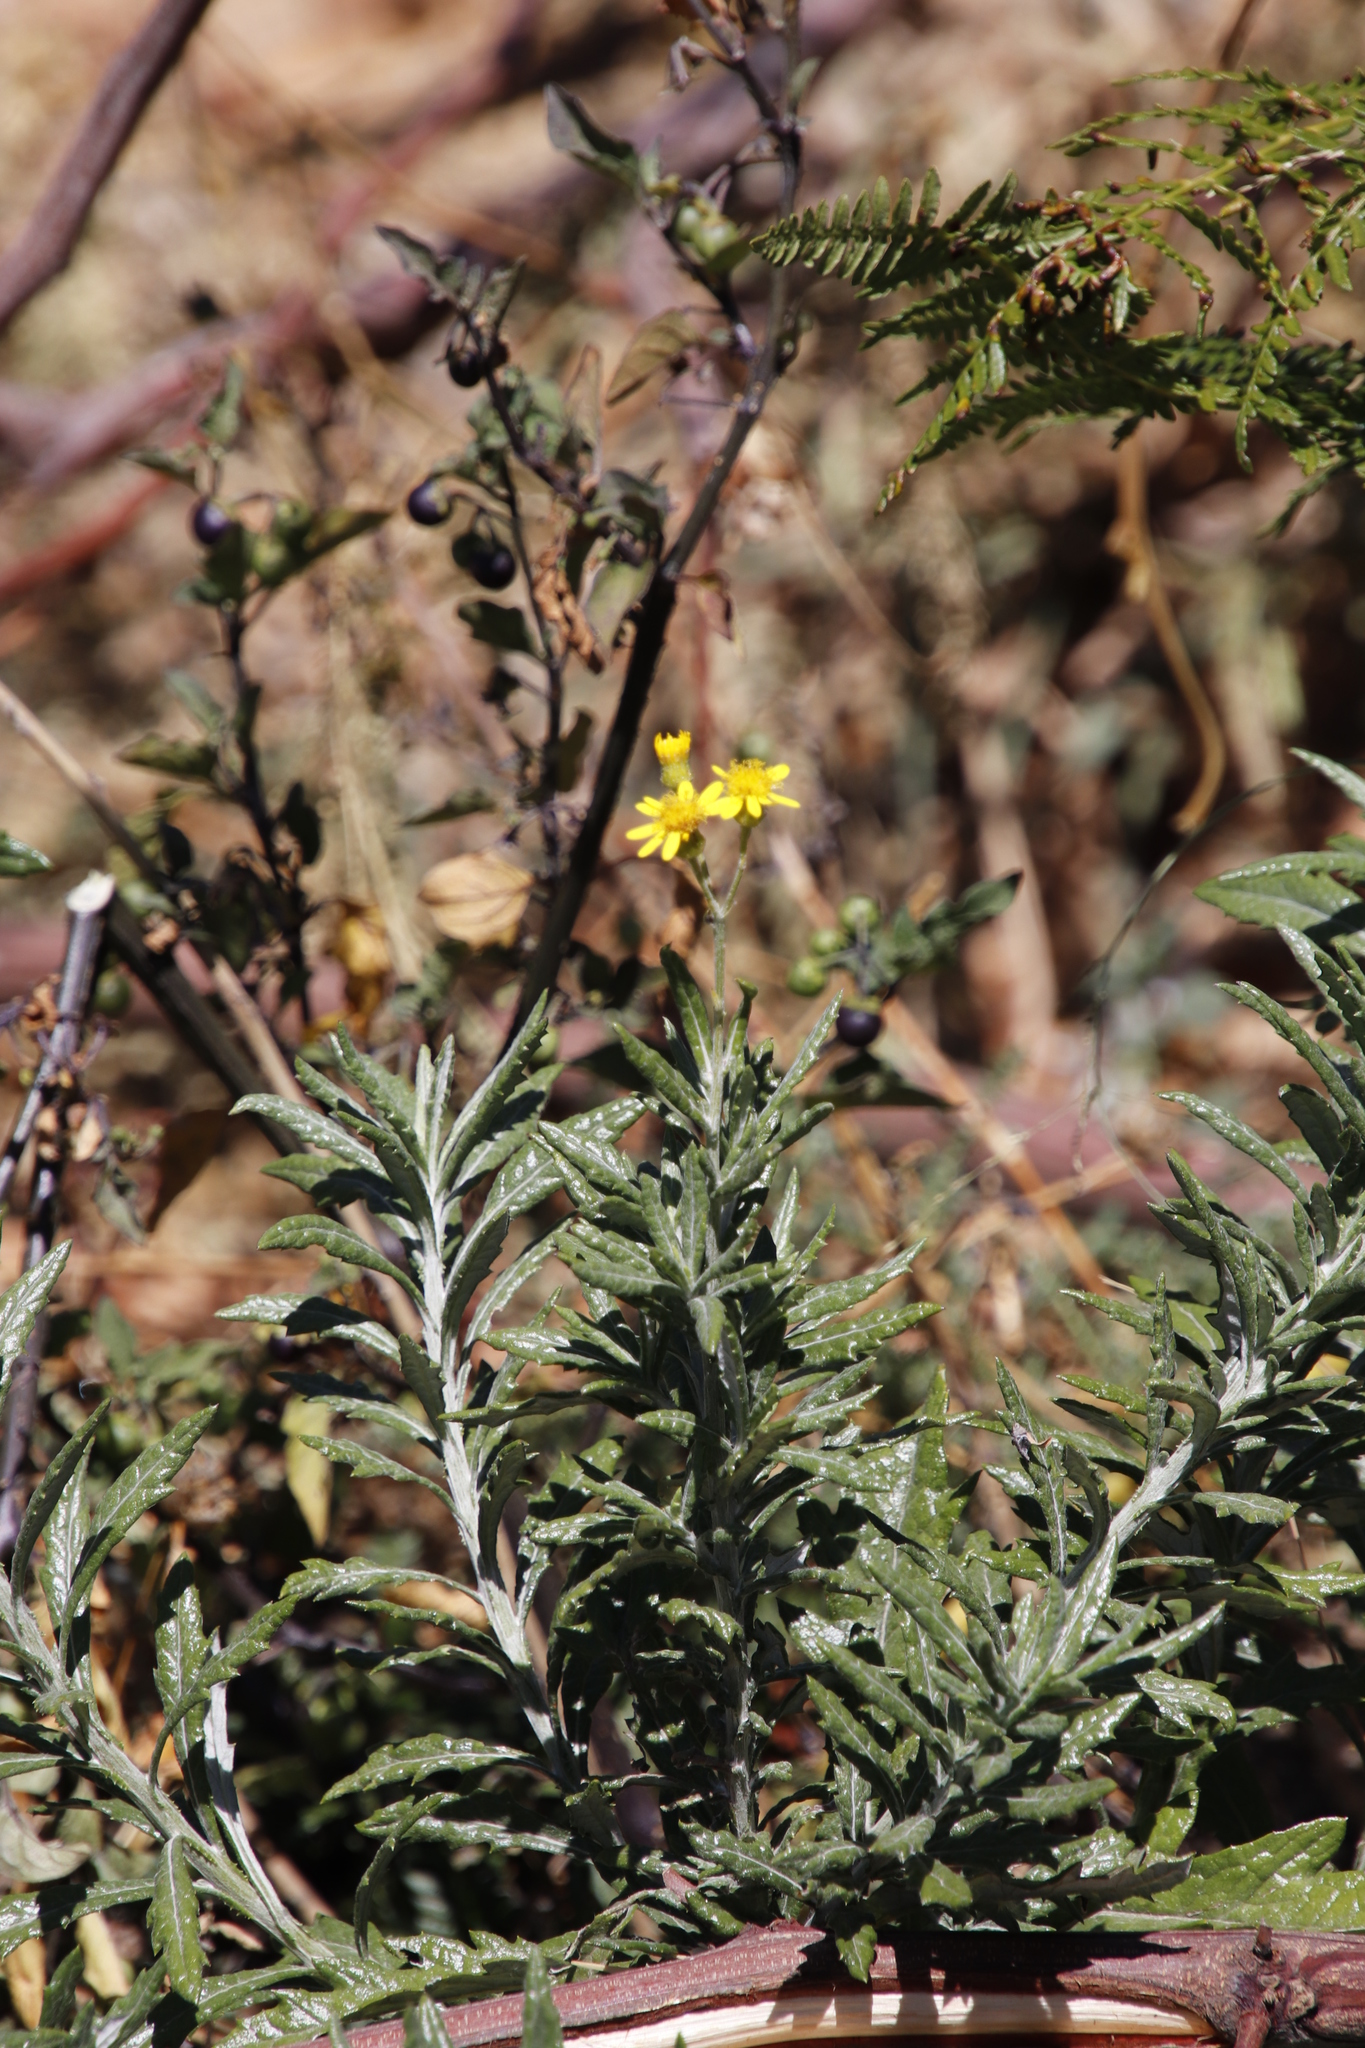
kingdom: Plantae
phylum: Tracheophyta
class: Magnoliopsida
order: Asterales
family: Asteraceae
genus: Senecio
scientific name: Senecio pterophorus
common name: Shoddy ragwort
